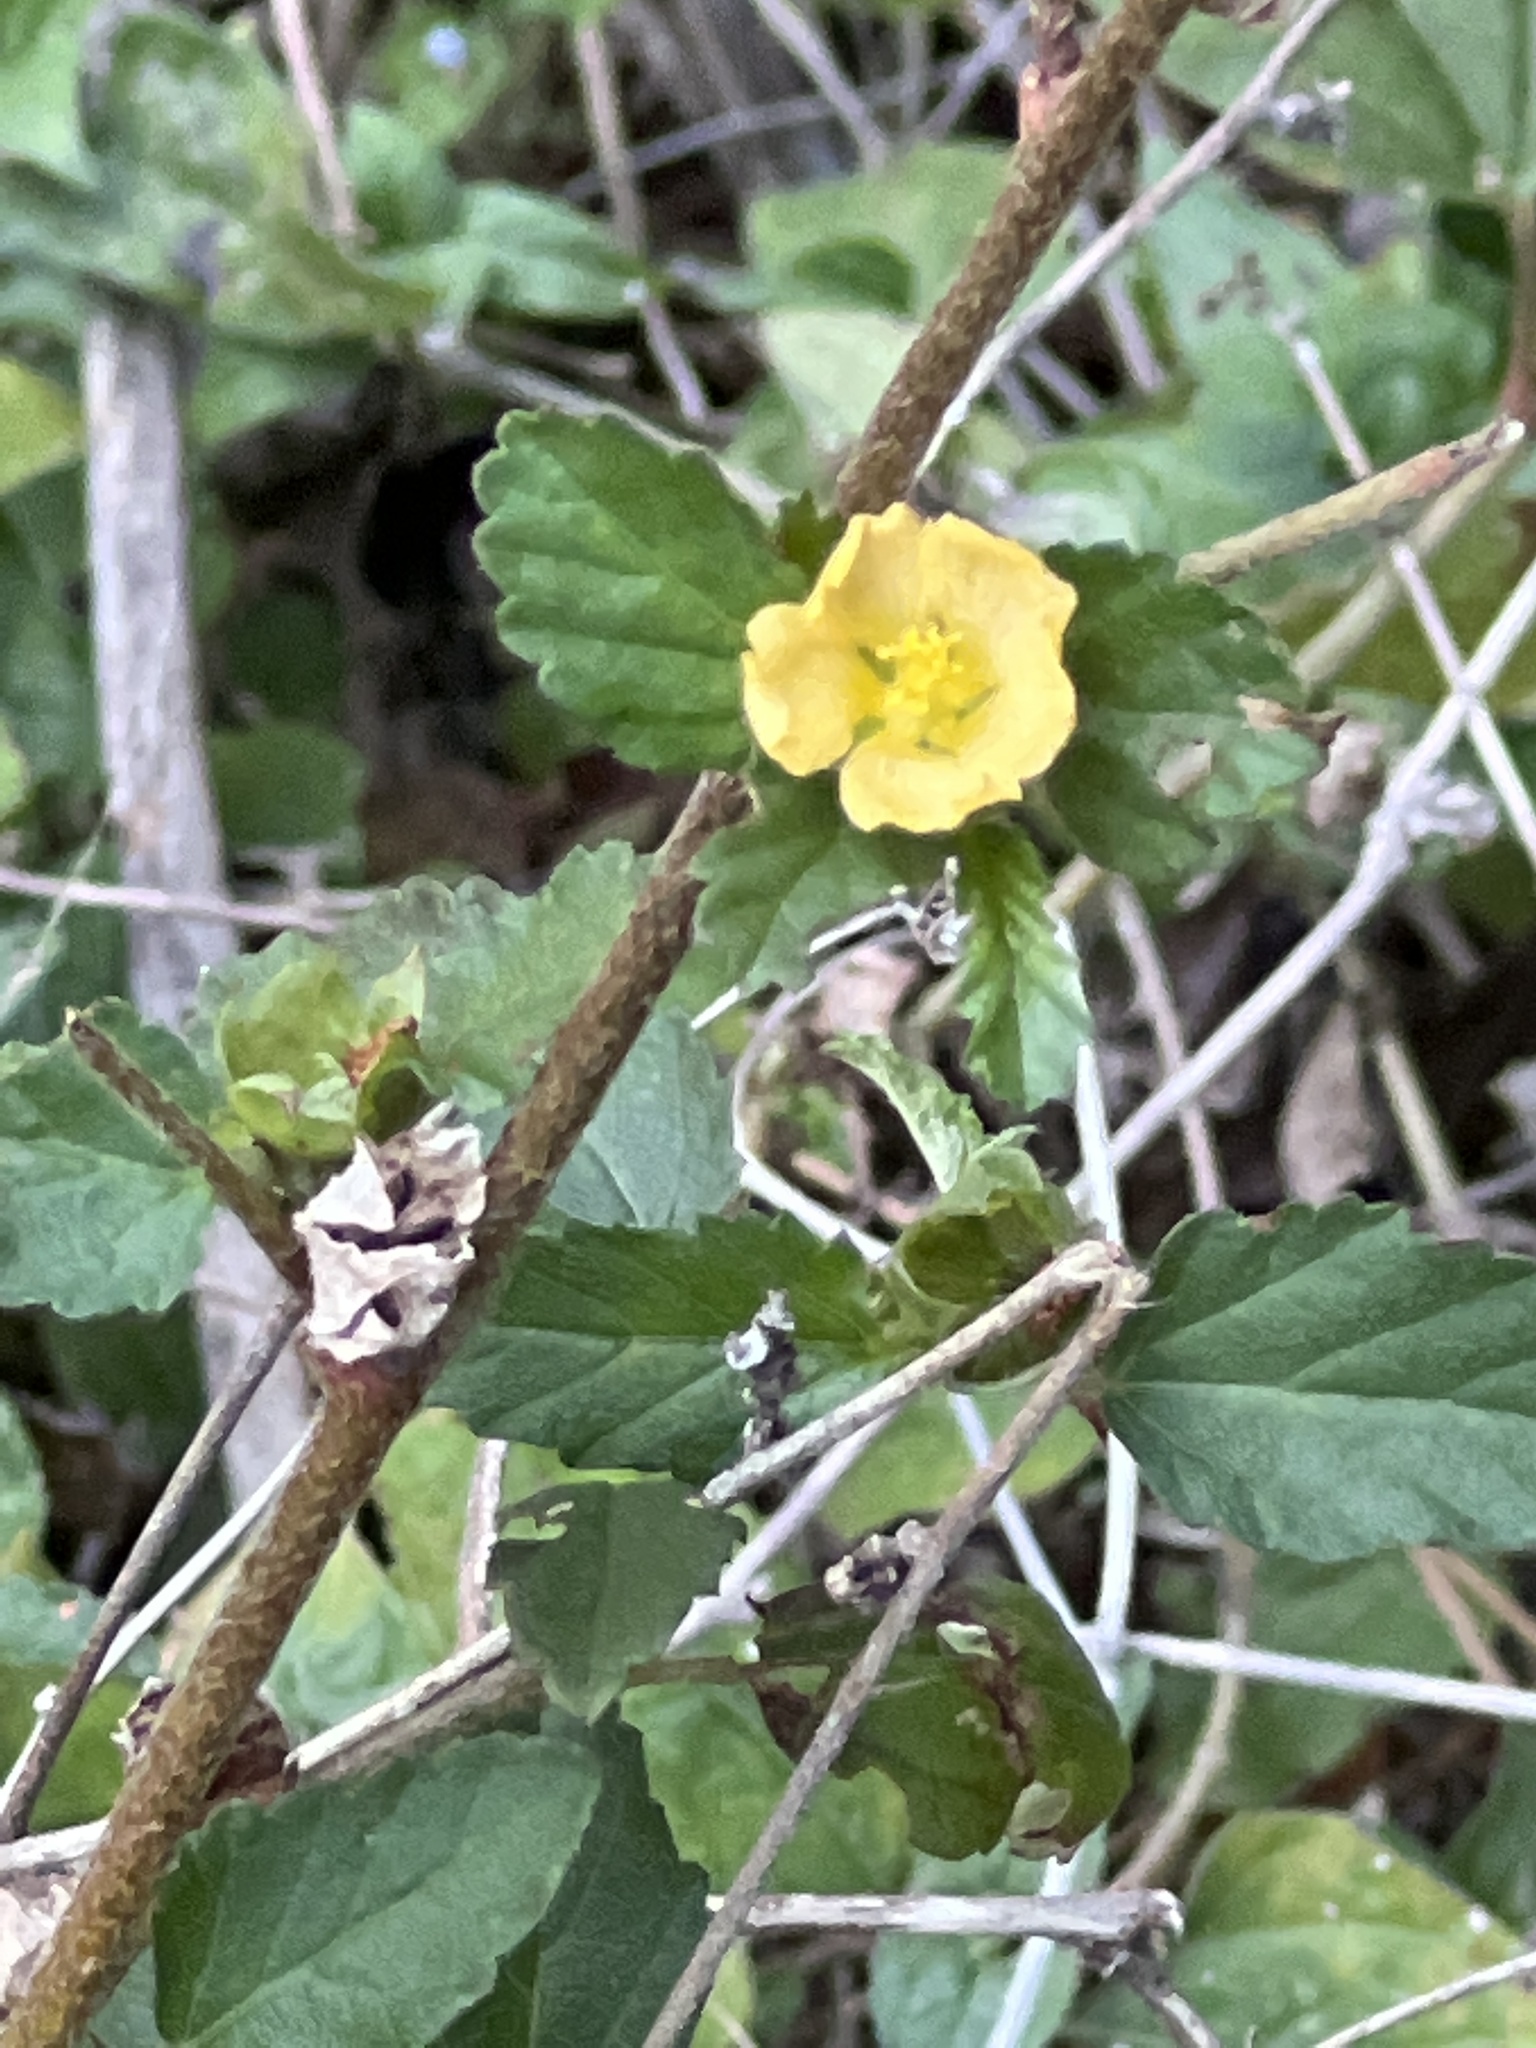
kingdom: Plantae
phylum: Tracheophyta
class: Magnoliopsida
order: Malvales
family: Malvaceae
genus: Malvastrum
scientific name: Malvastrum coromandelianum
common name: Threelobe false mallow
